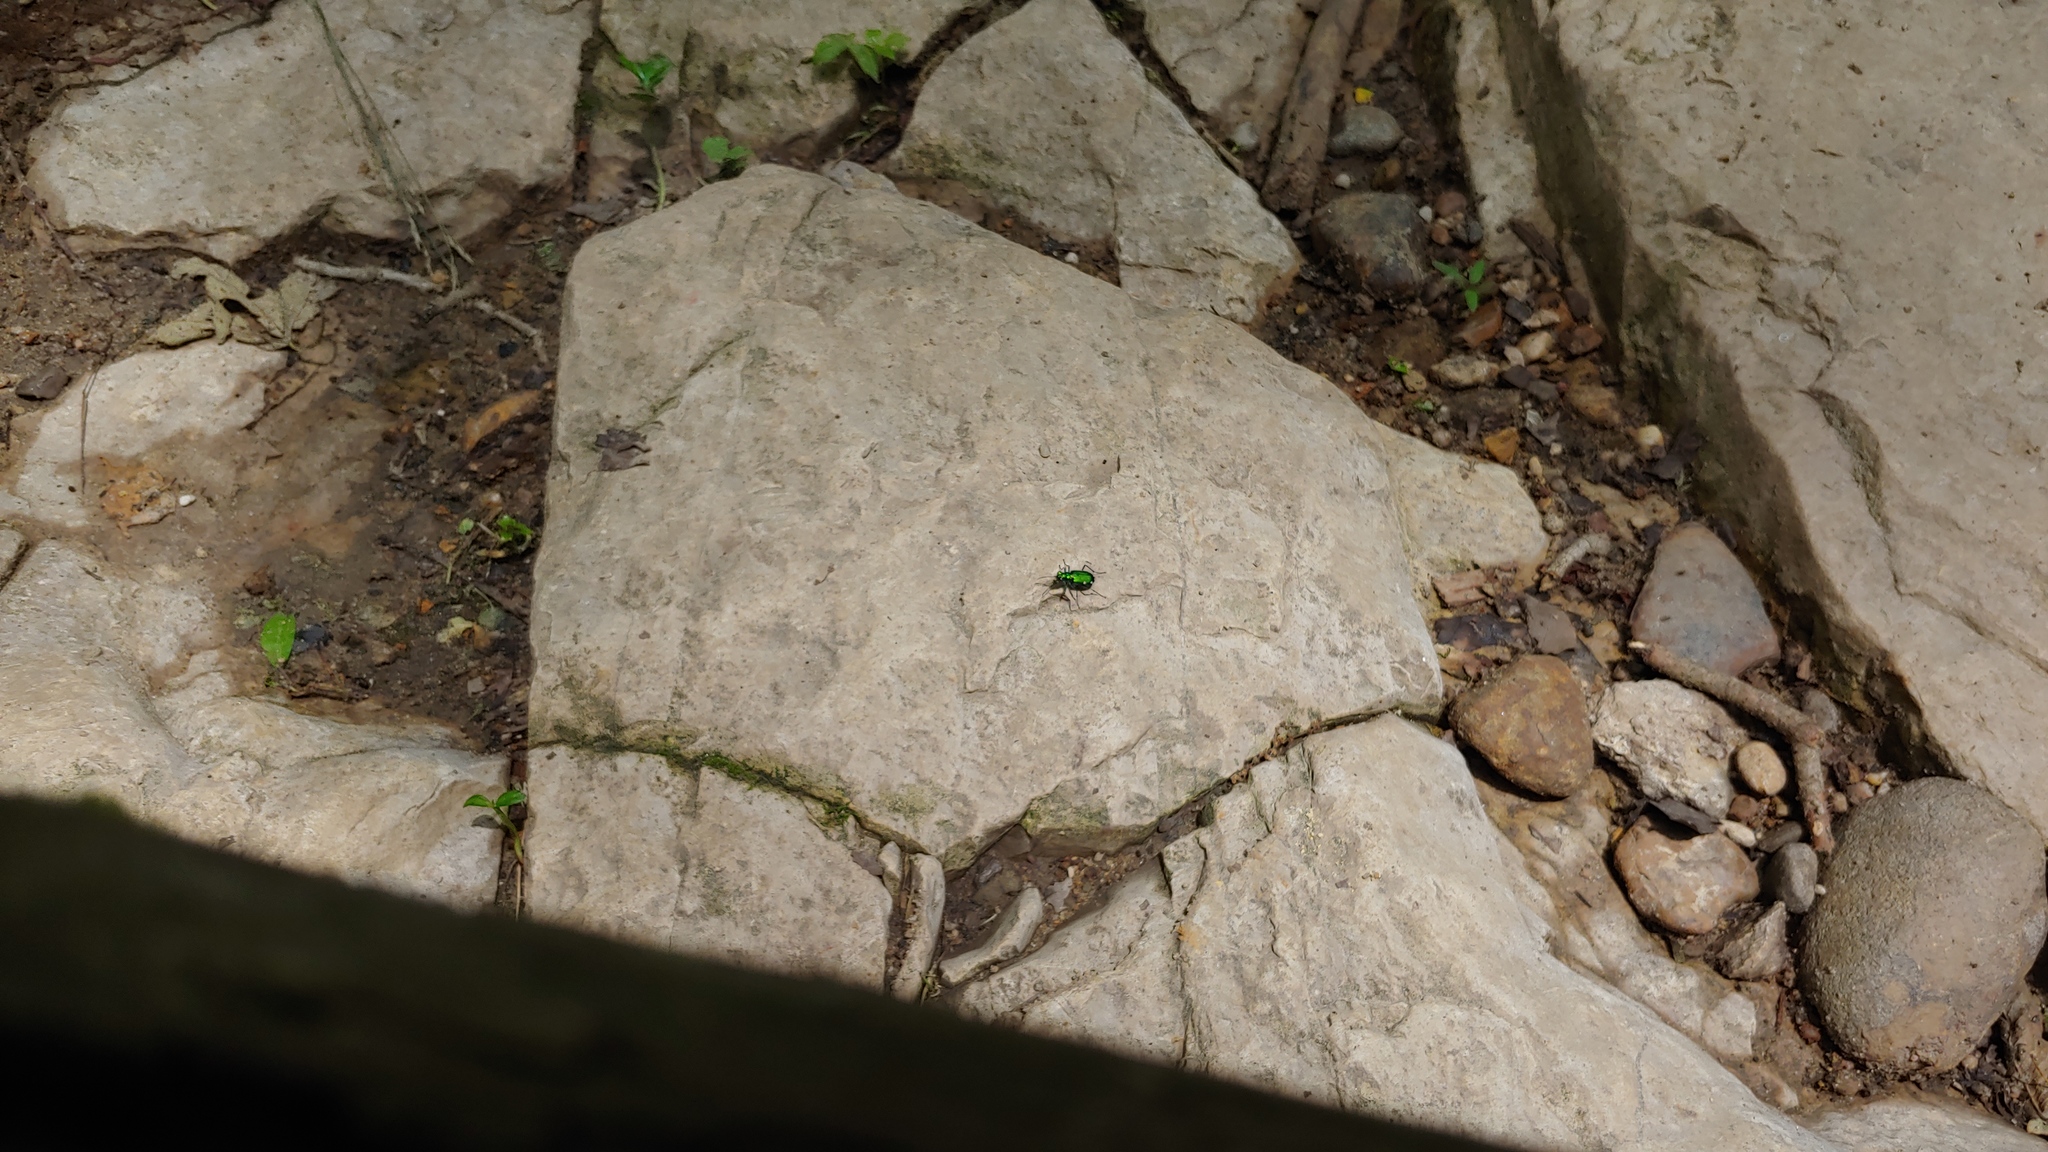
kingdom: Animalia
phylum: Arthropoda
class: Insecta
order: Coleoptera
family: Carabidae
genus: Cicindela
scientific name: Cicindela sexguttata
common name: Six-spotted tiger beetle
